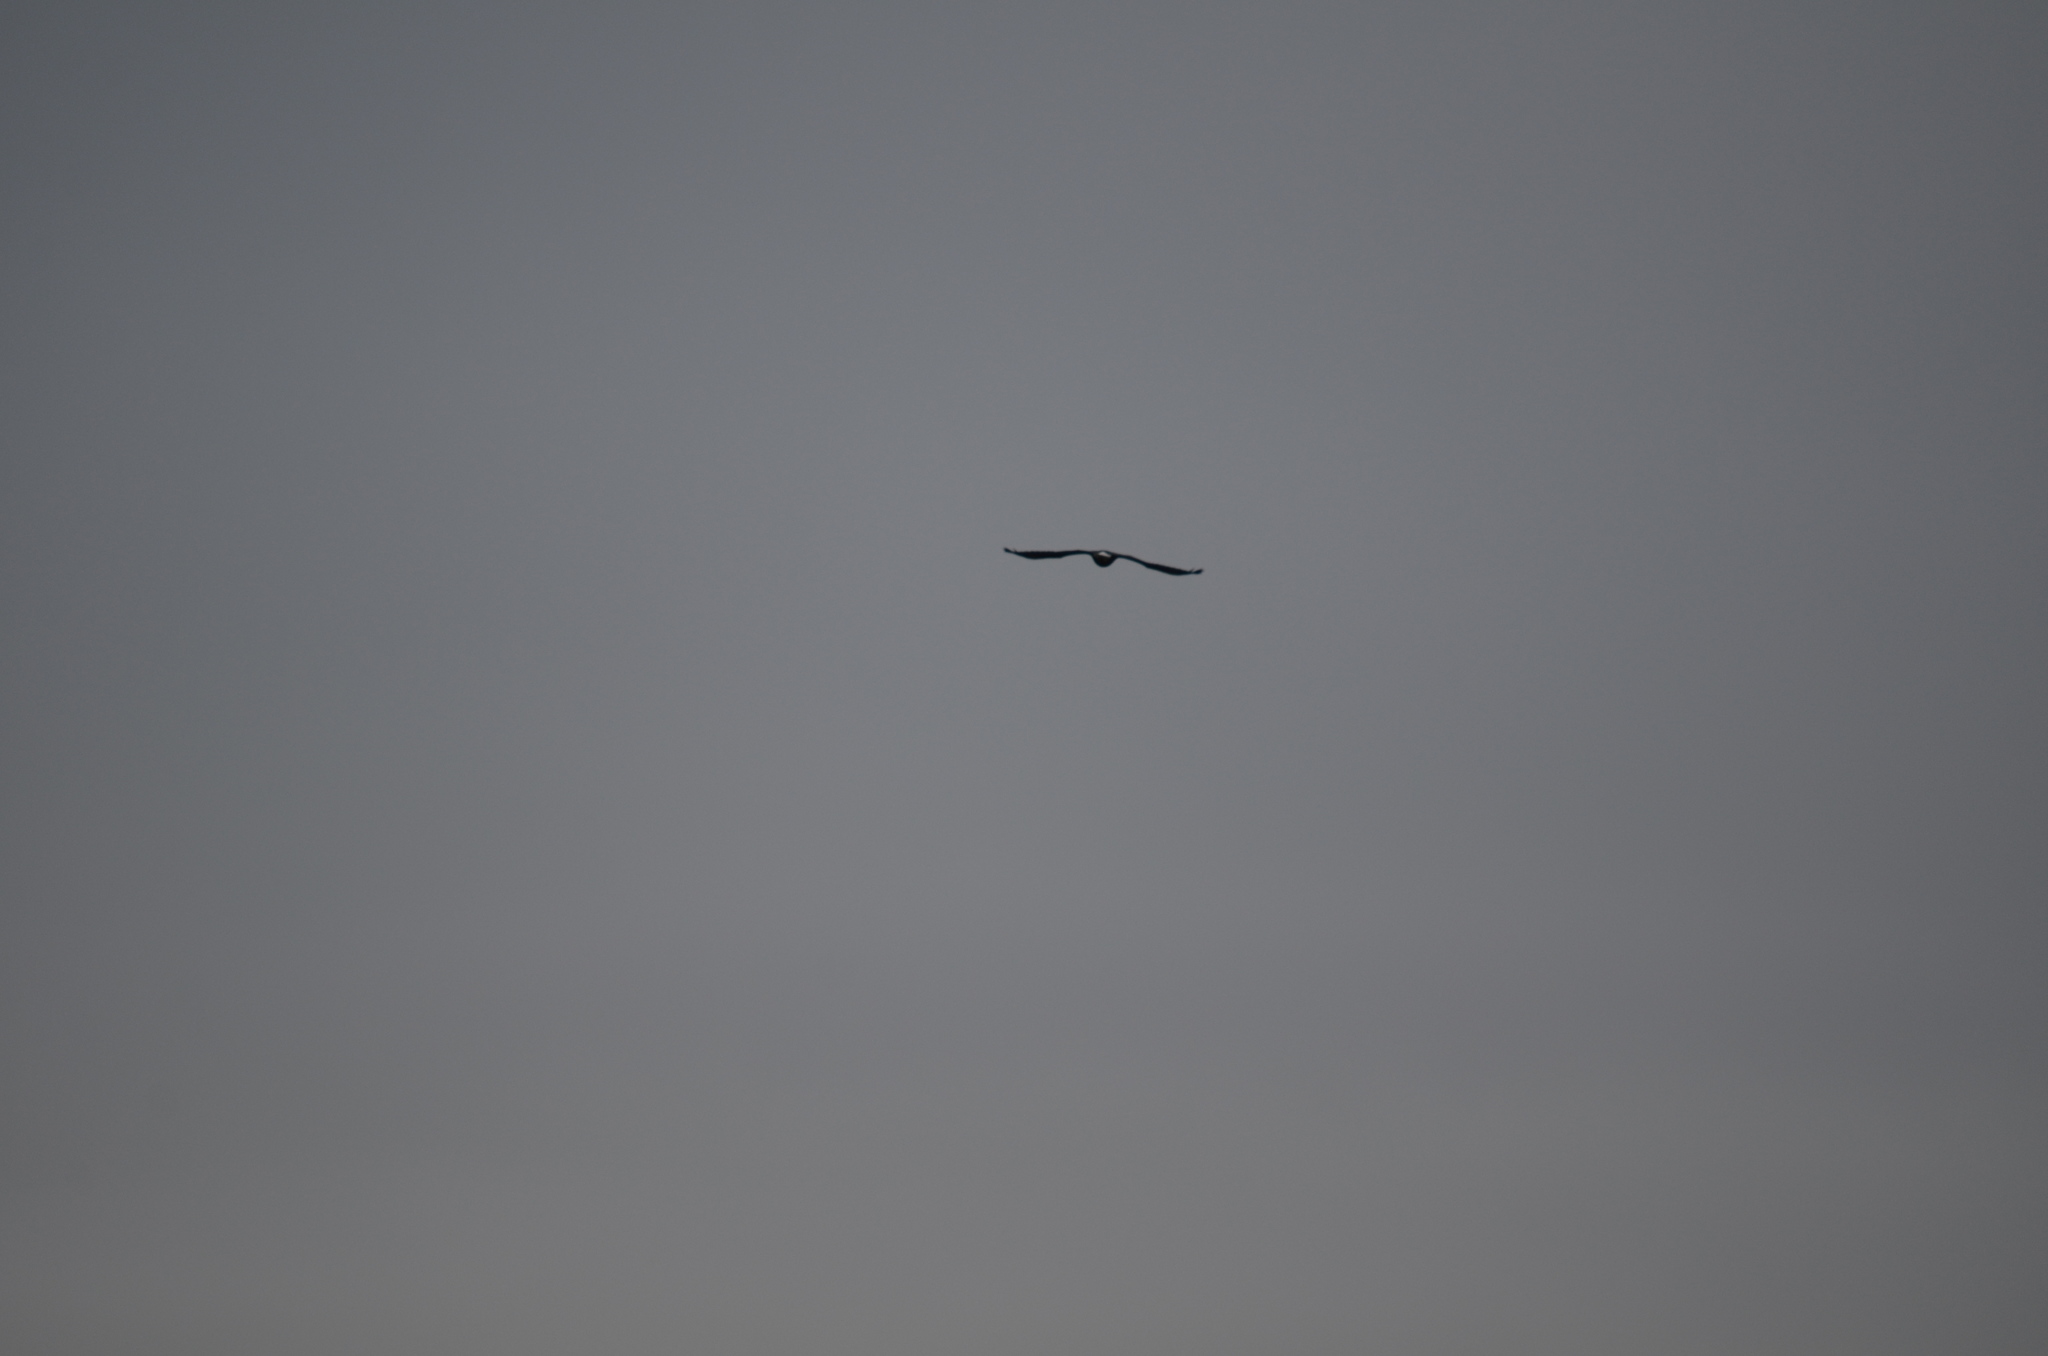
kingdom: Animalia
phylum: Chordata
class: Aves
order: Accipitriformes
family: Accipitridae
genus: Haliaeetus
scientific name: Haliaeetus leucocephalus
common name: Bald eagle
